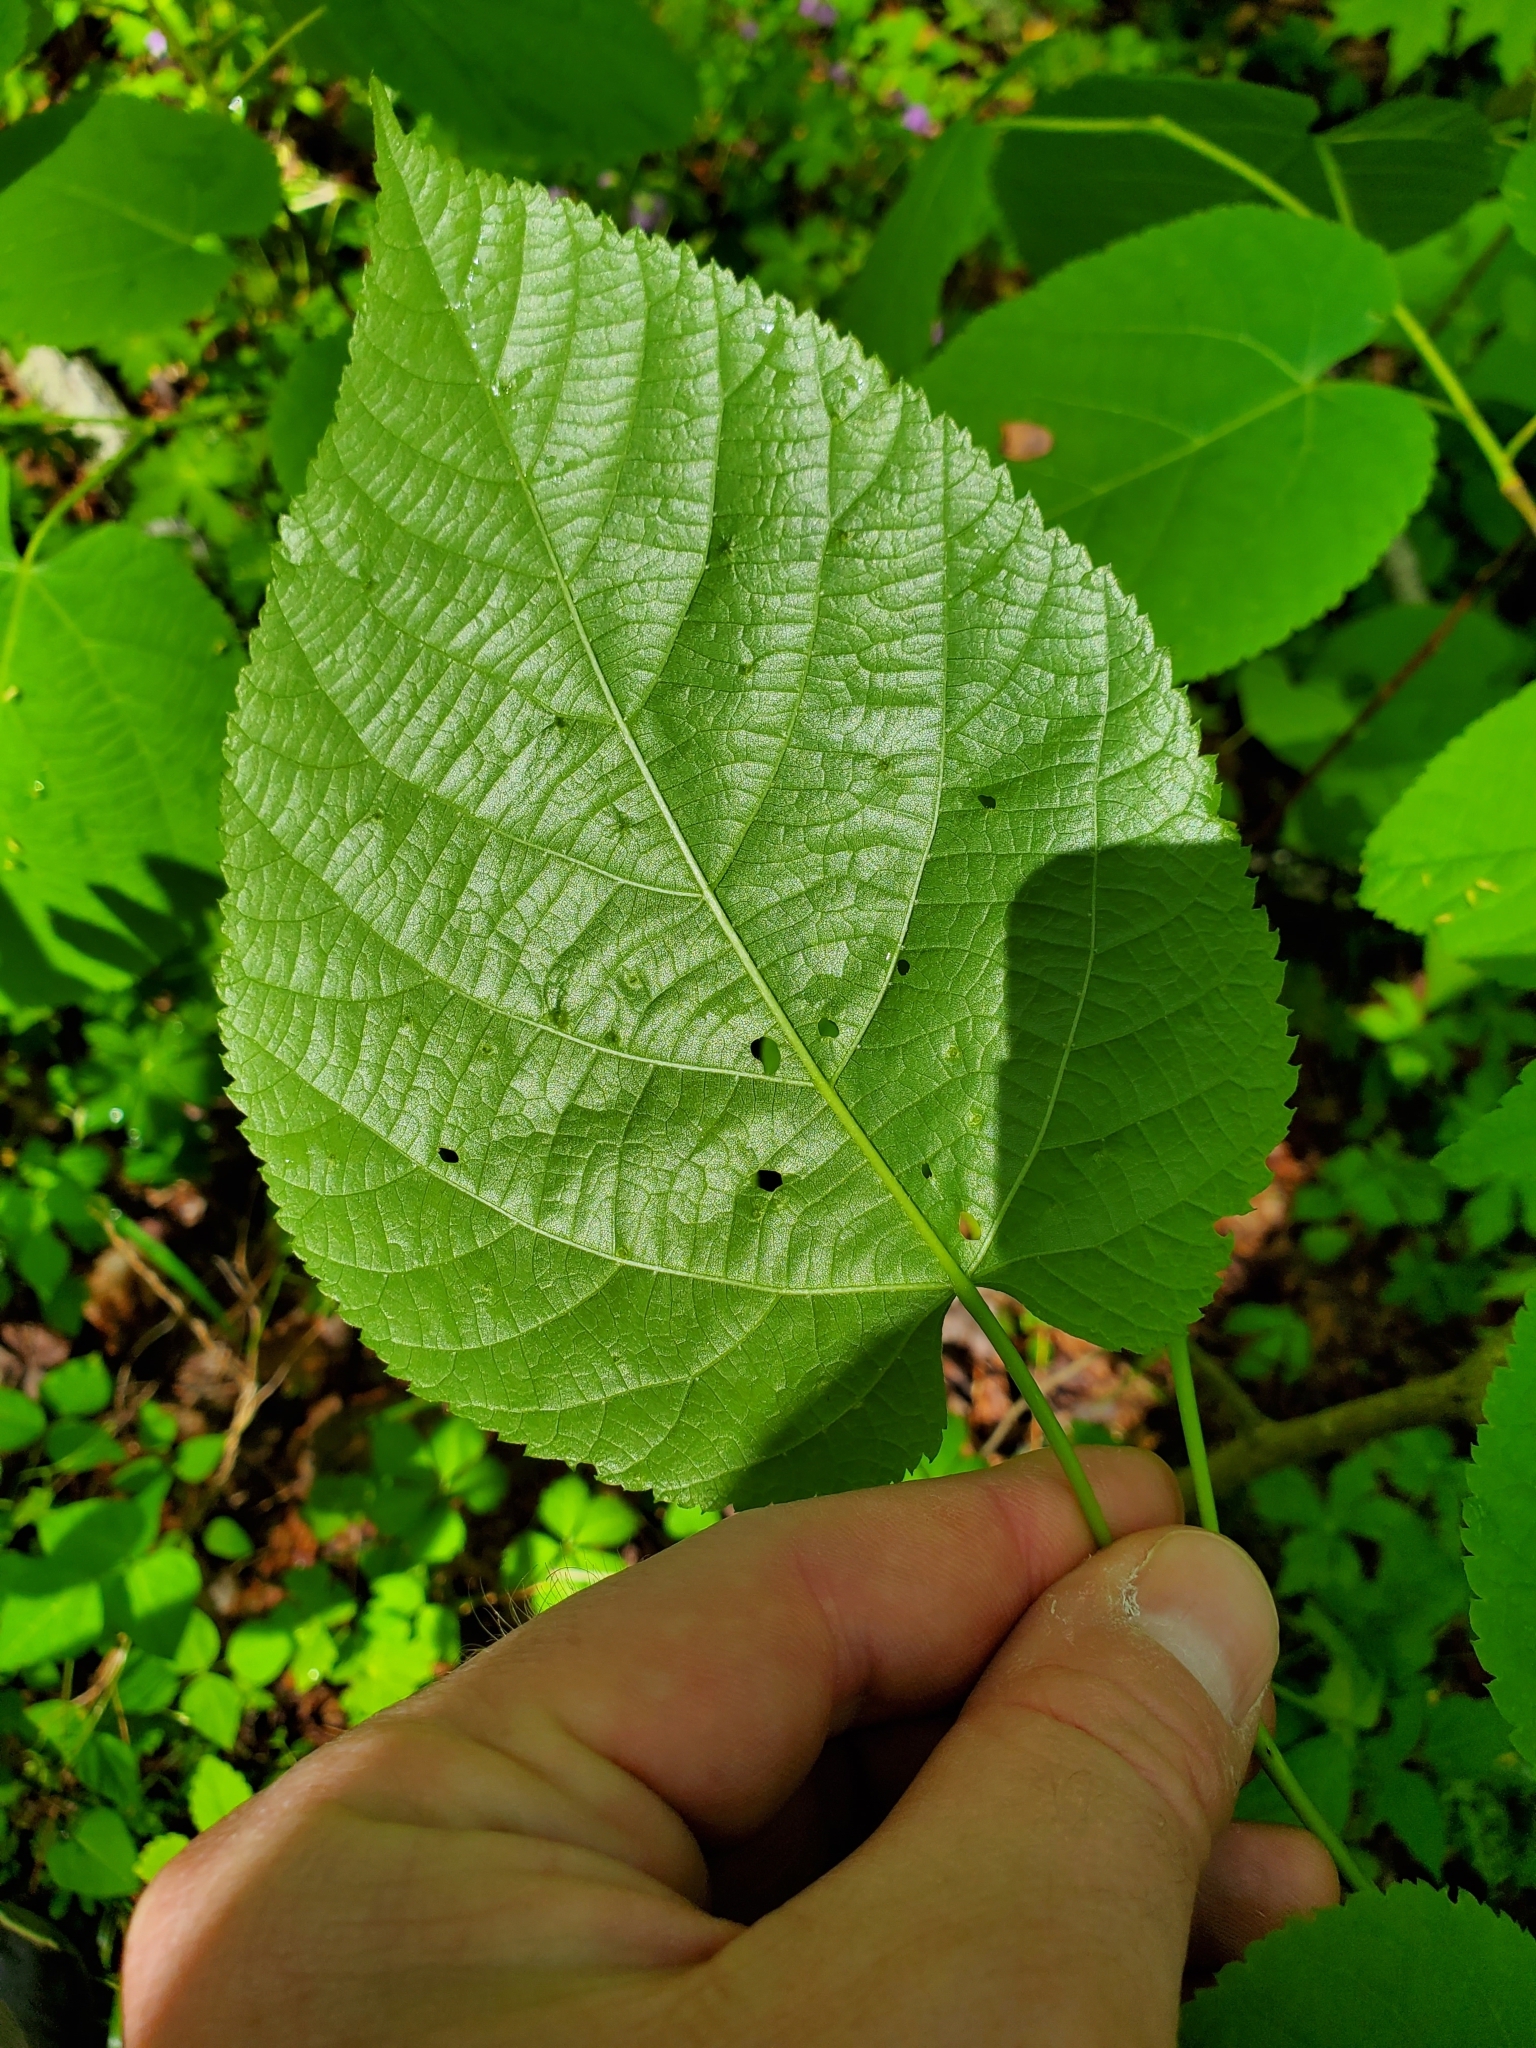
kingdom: Animalia
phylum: Arthropoda
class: Arachnida
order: Trombidiformes
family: Eriophyidae
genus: Eriophyes
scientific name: Eriophyes tiliae
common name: Red nail gall mite
